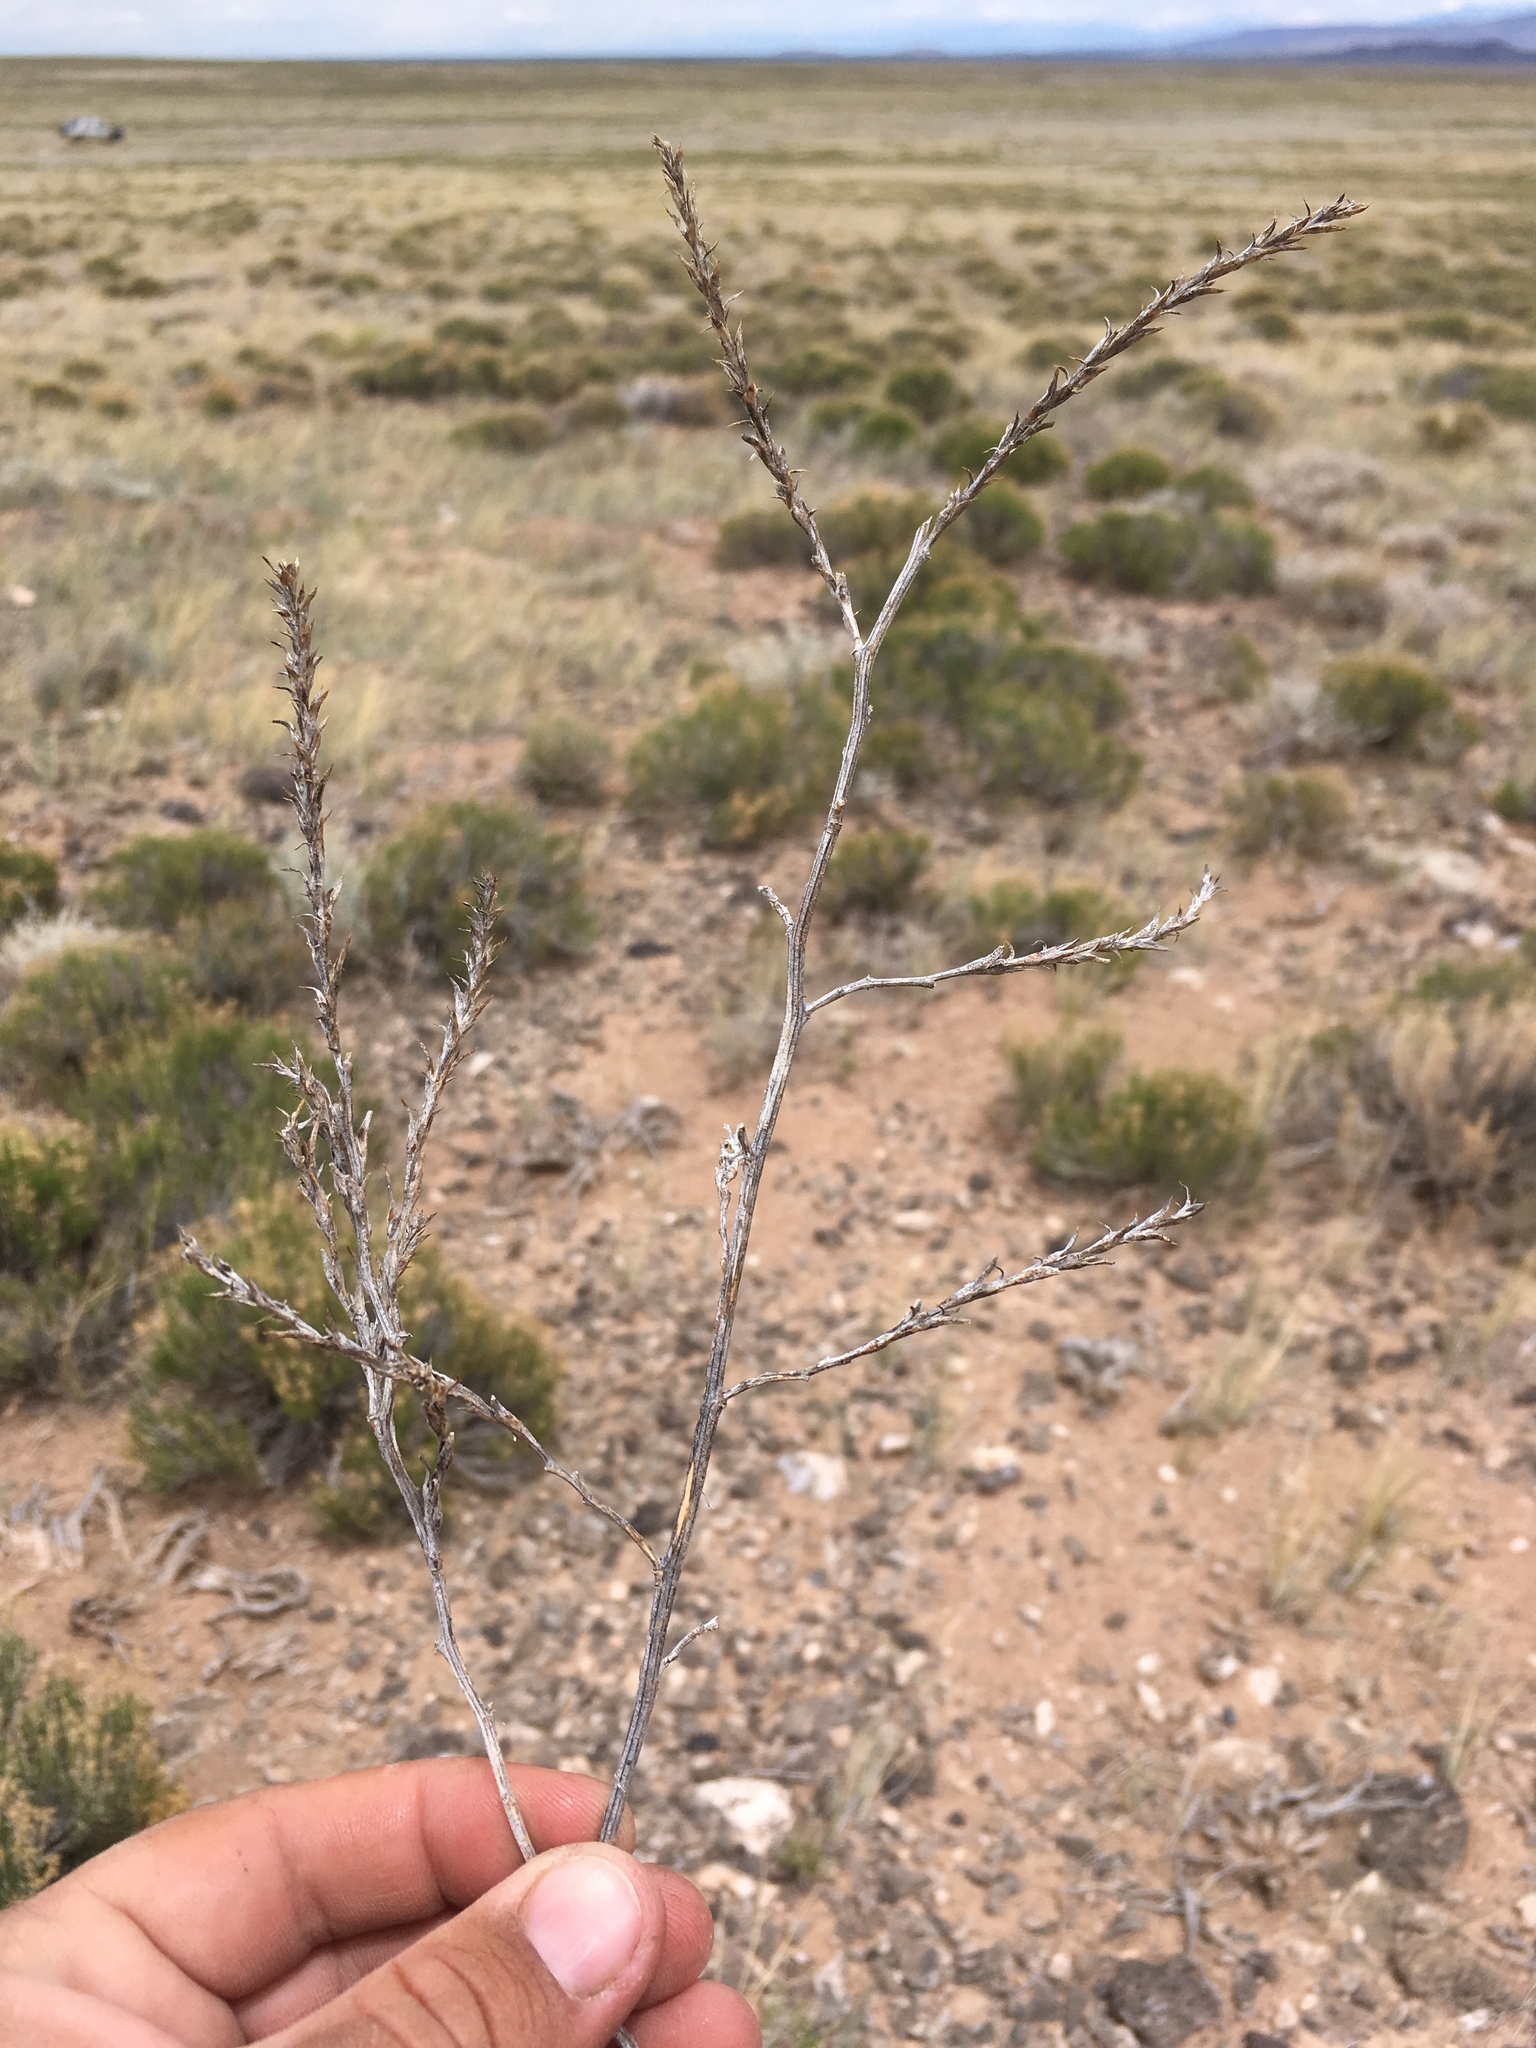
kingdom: Plantae
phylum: Tracheophyta
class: Magnoliopsida
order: Caryophyllales
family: Amaranthaceae
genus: Salsola
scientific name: Salsola collina
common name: Tumbleweed
